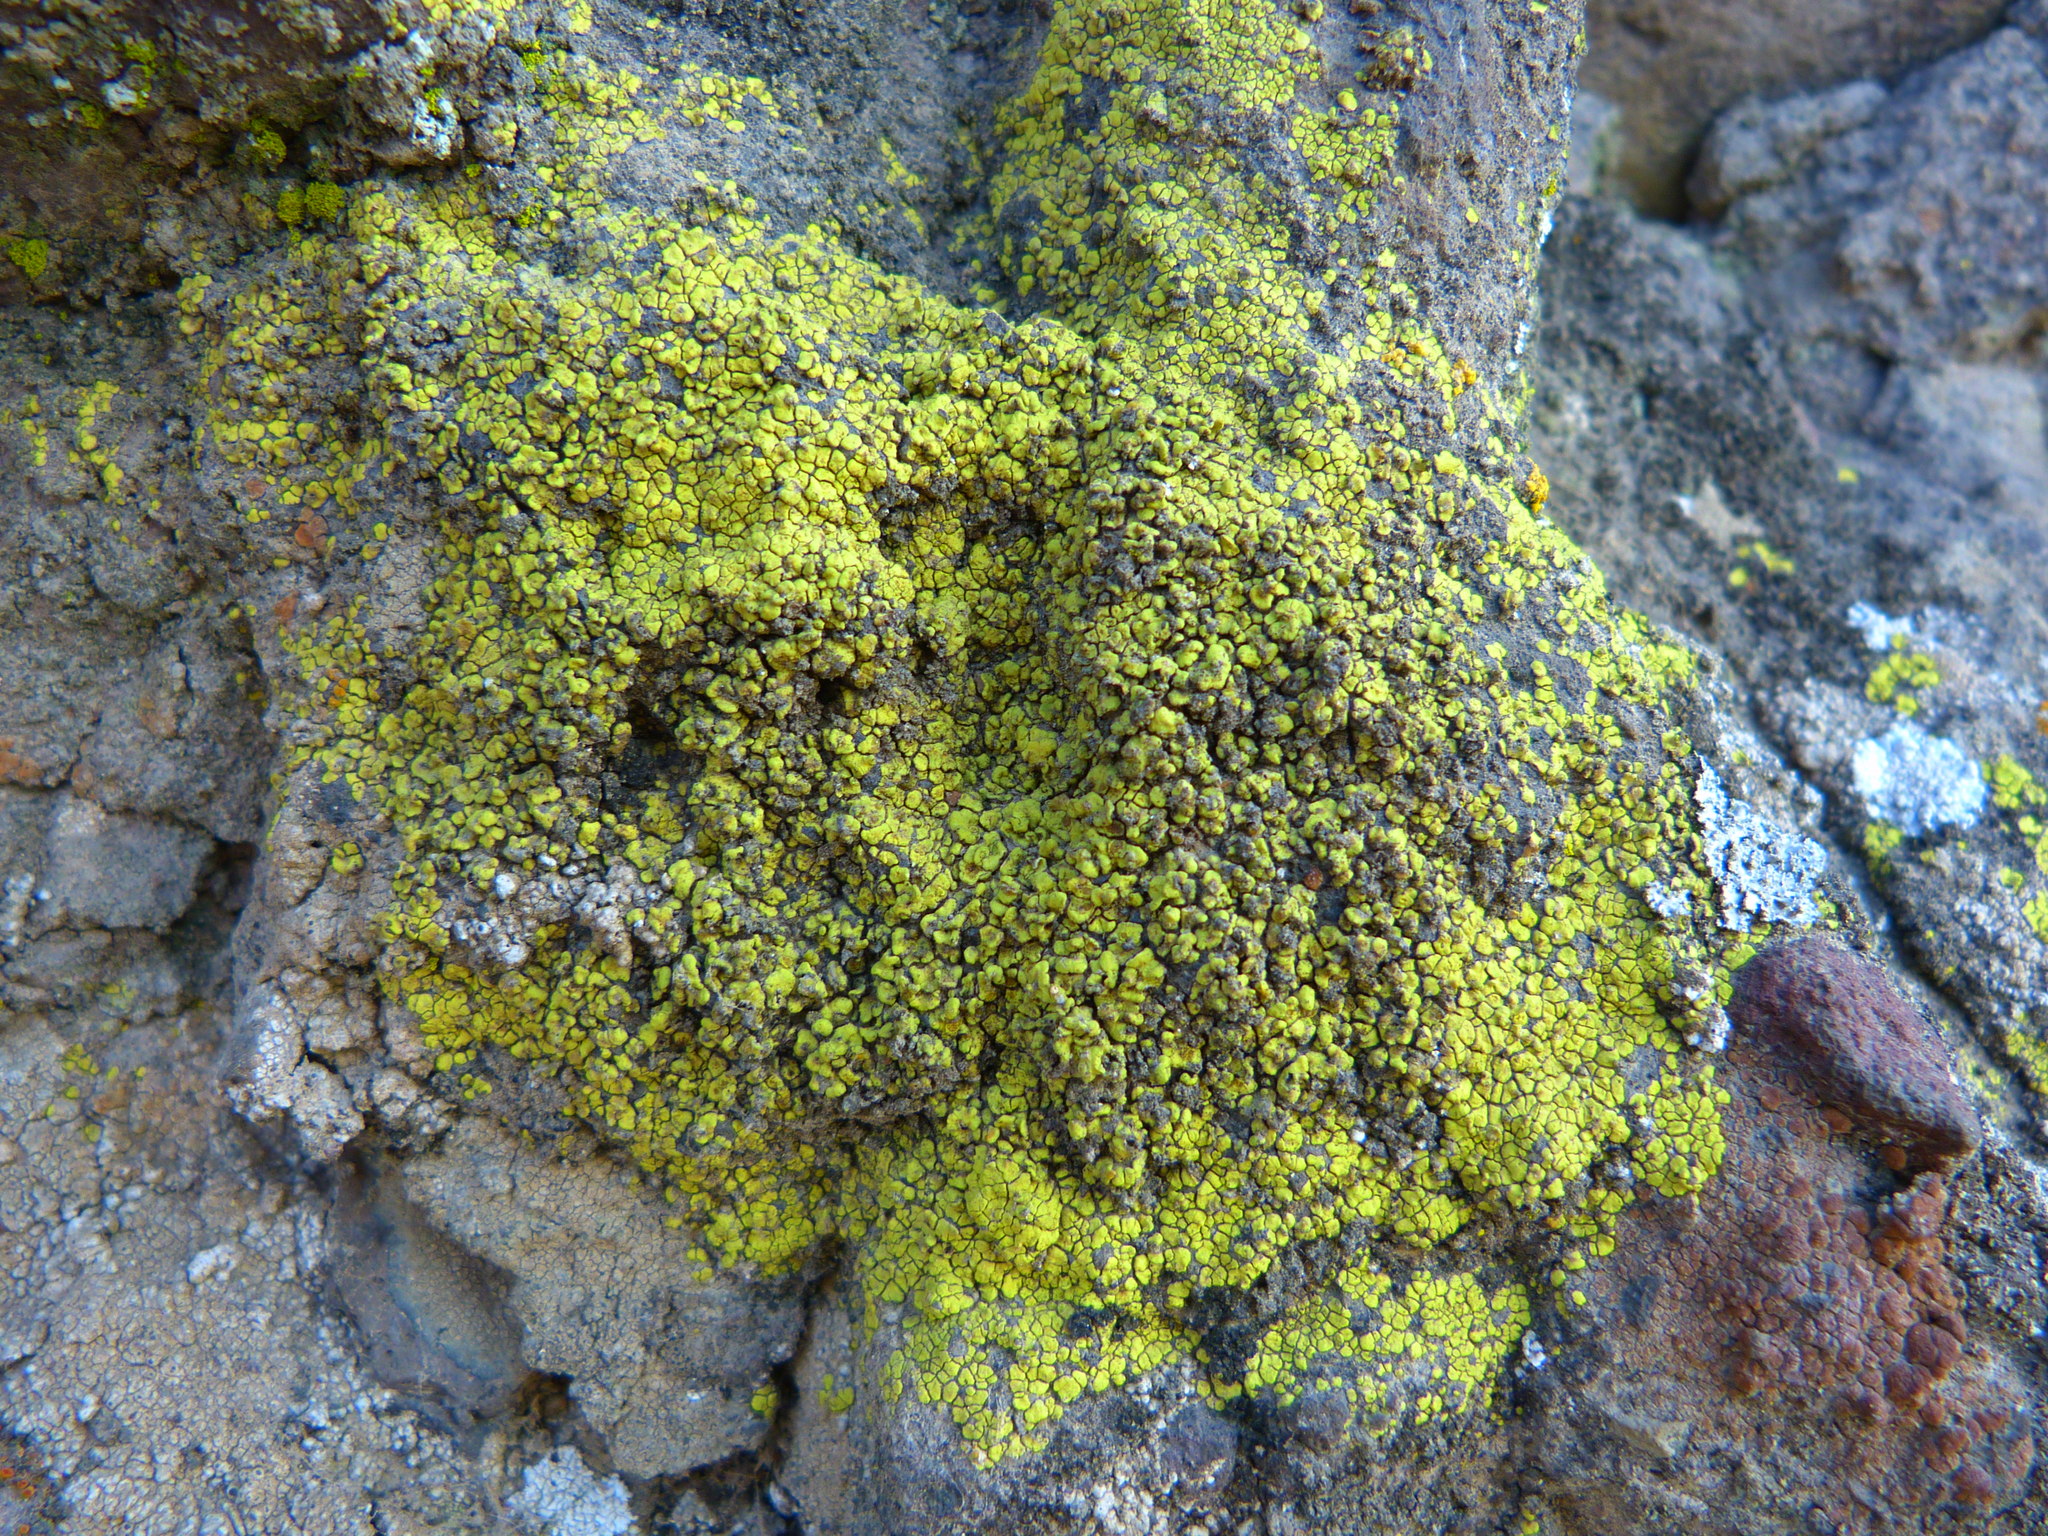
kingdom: Fungi
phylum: Ascomycota
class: Lecanoromycetes
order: Acarosporales
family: Acarosporaceae
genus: Acarospora
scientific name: Acarospora socialis
